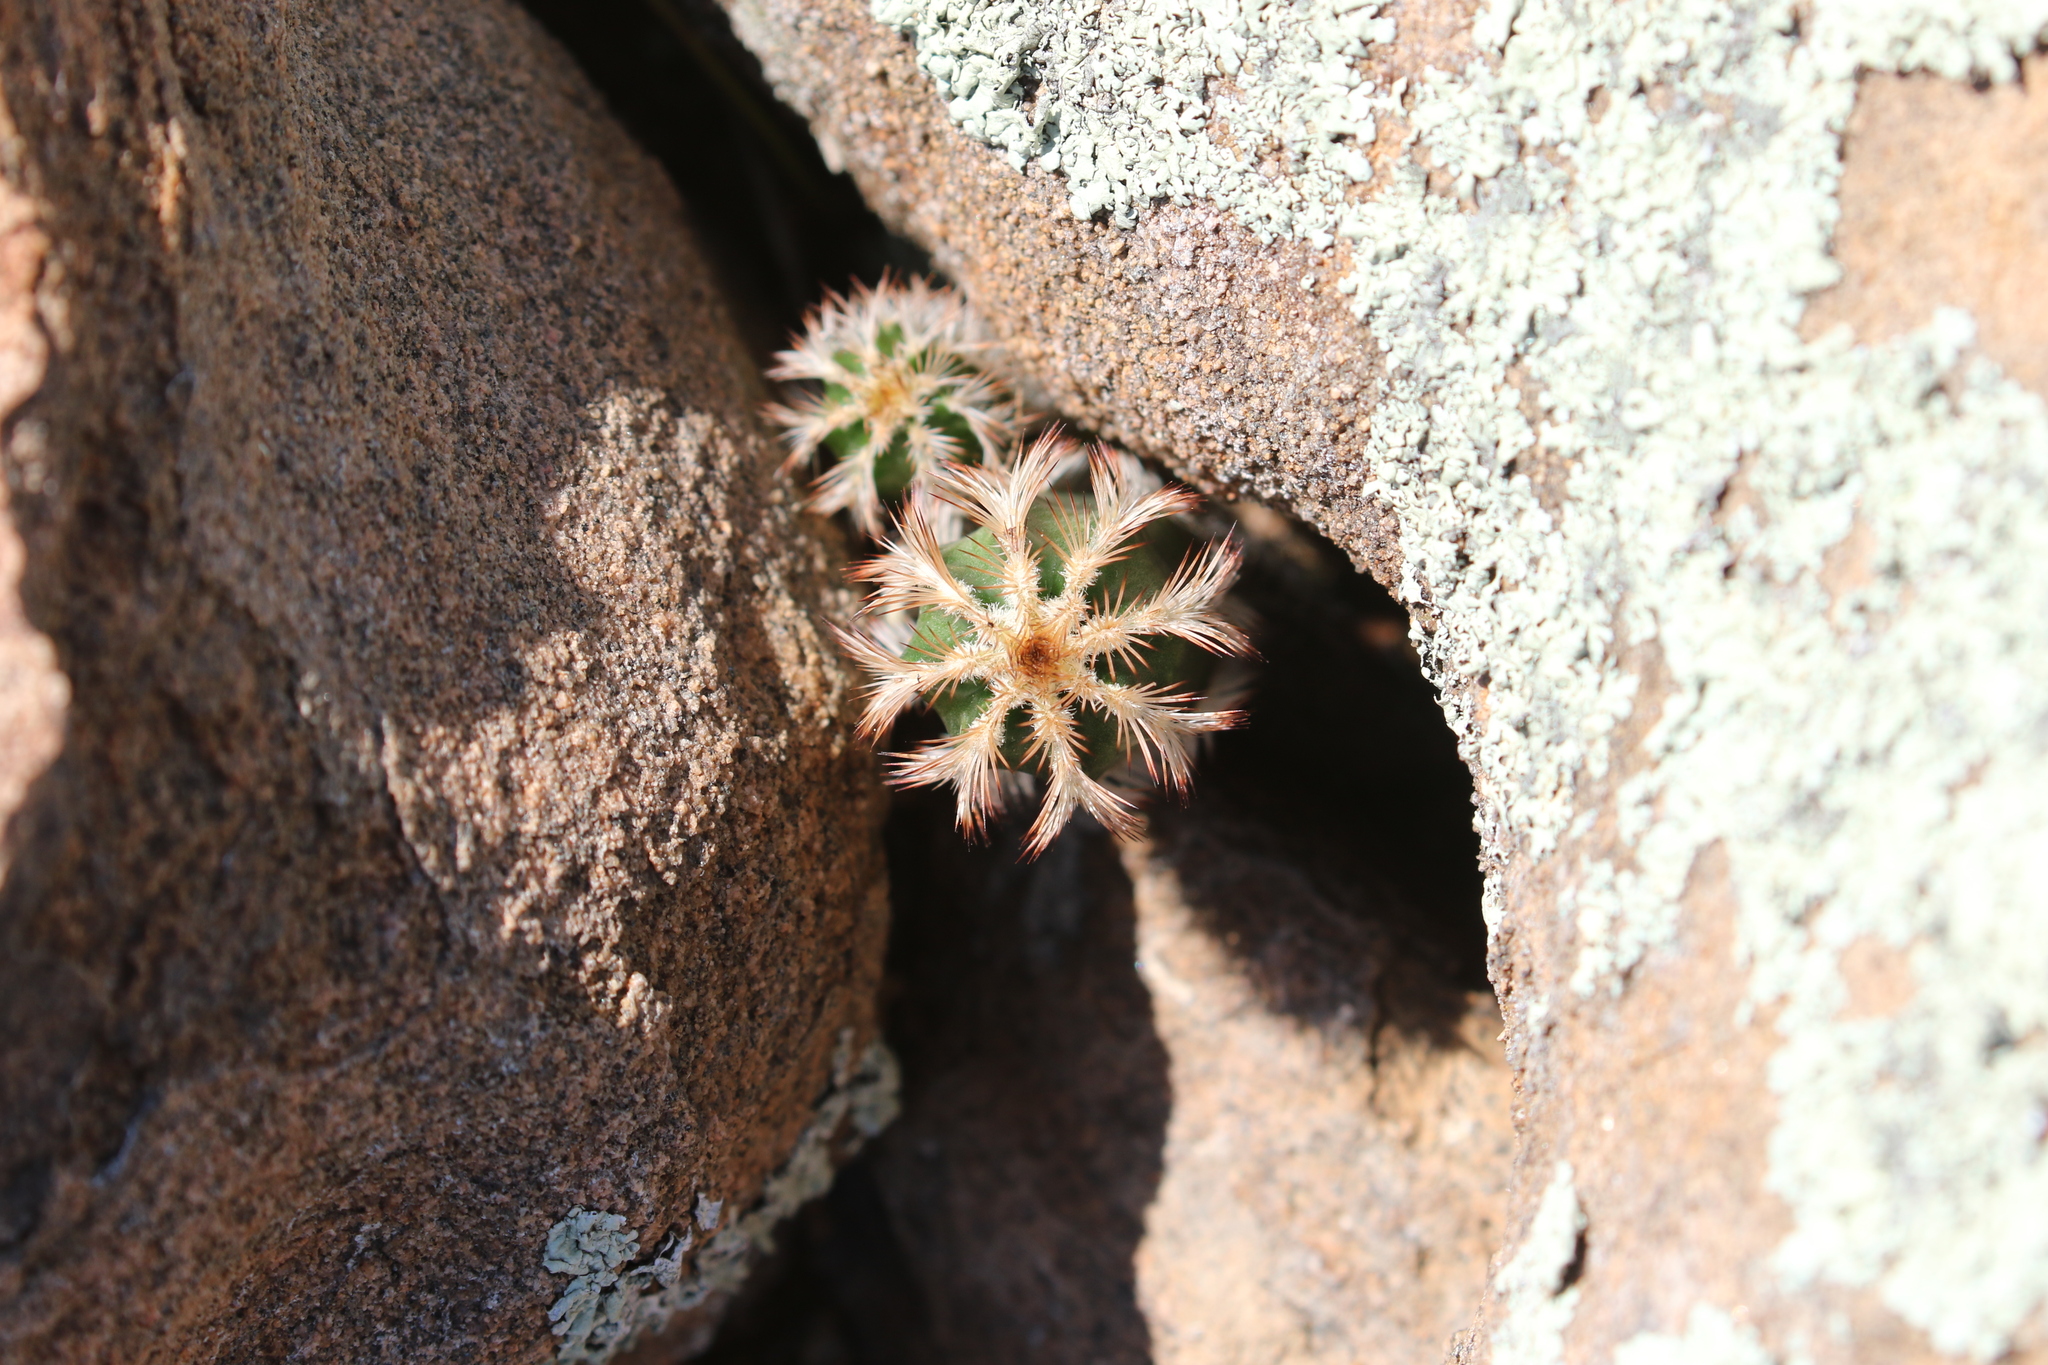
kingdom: Plantae
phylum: Tracheophyta
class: Magnoliopsida
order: Caryophyllales
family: Cactaceae
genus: Echinocereus
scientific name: Echinocereus reichenbachii
